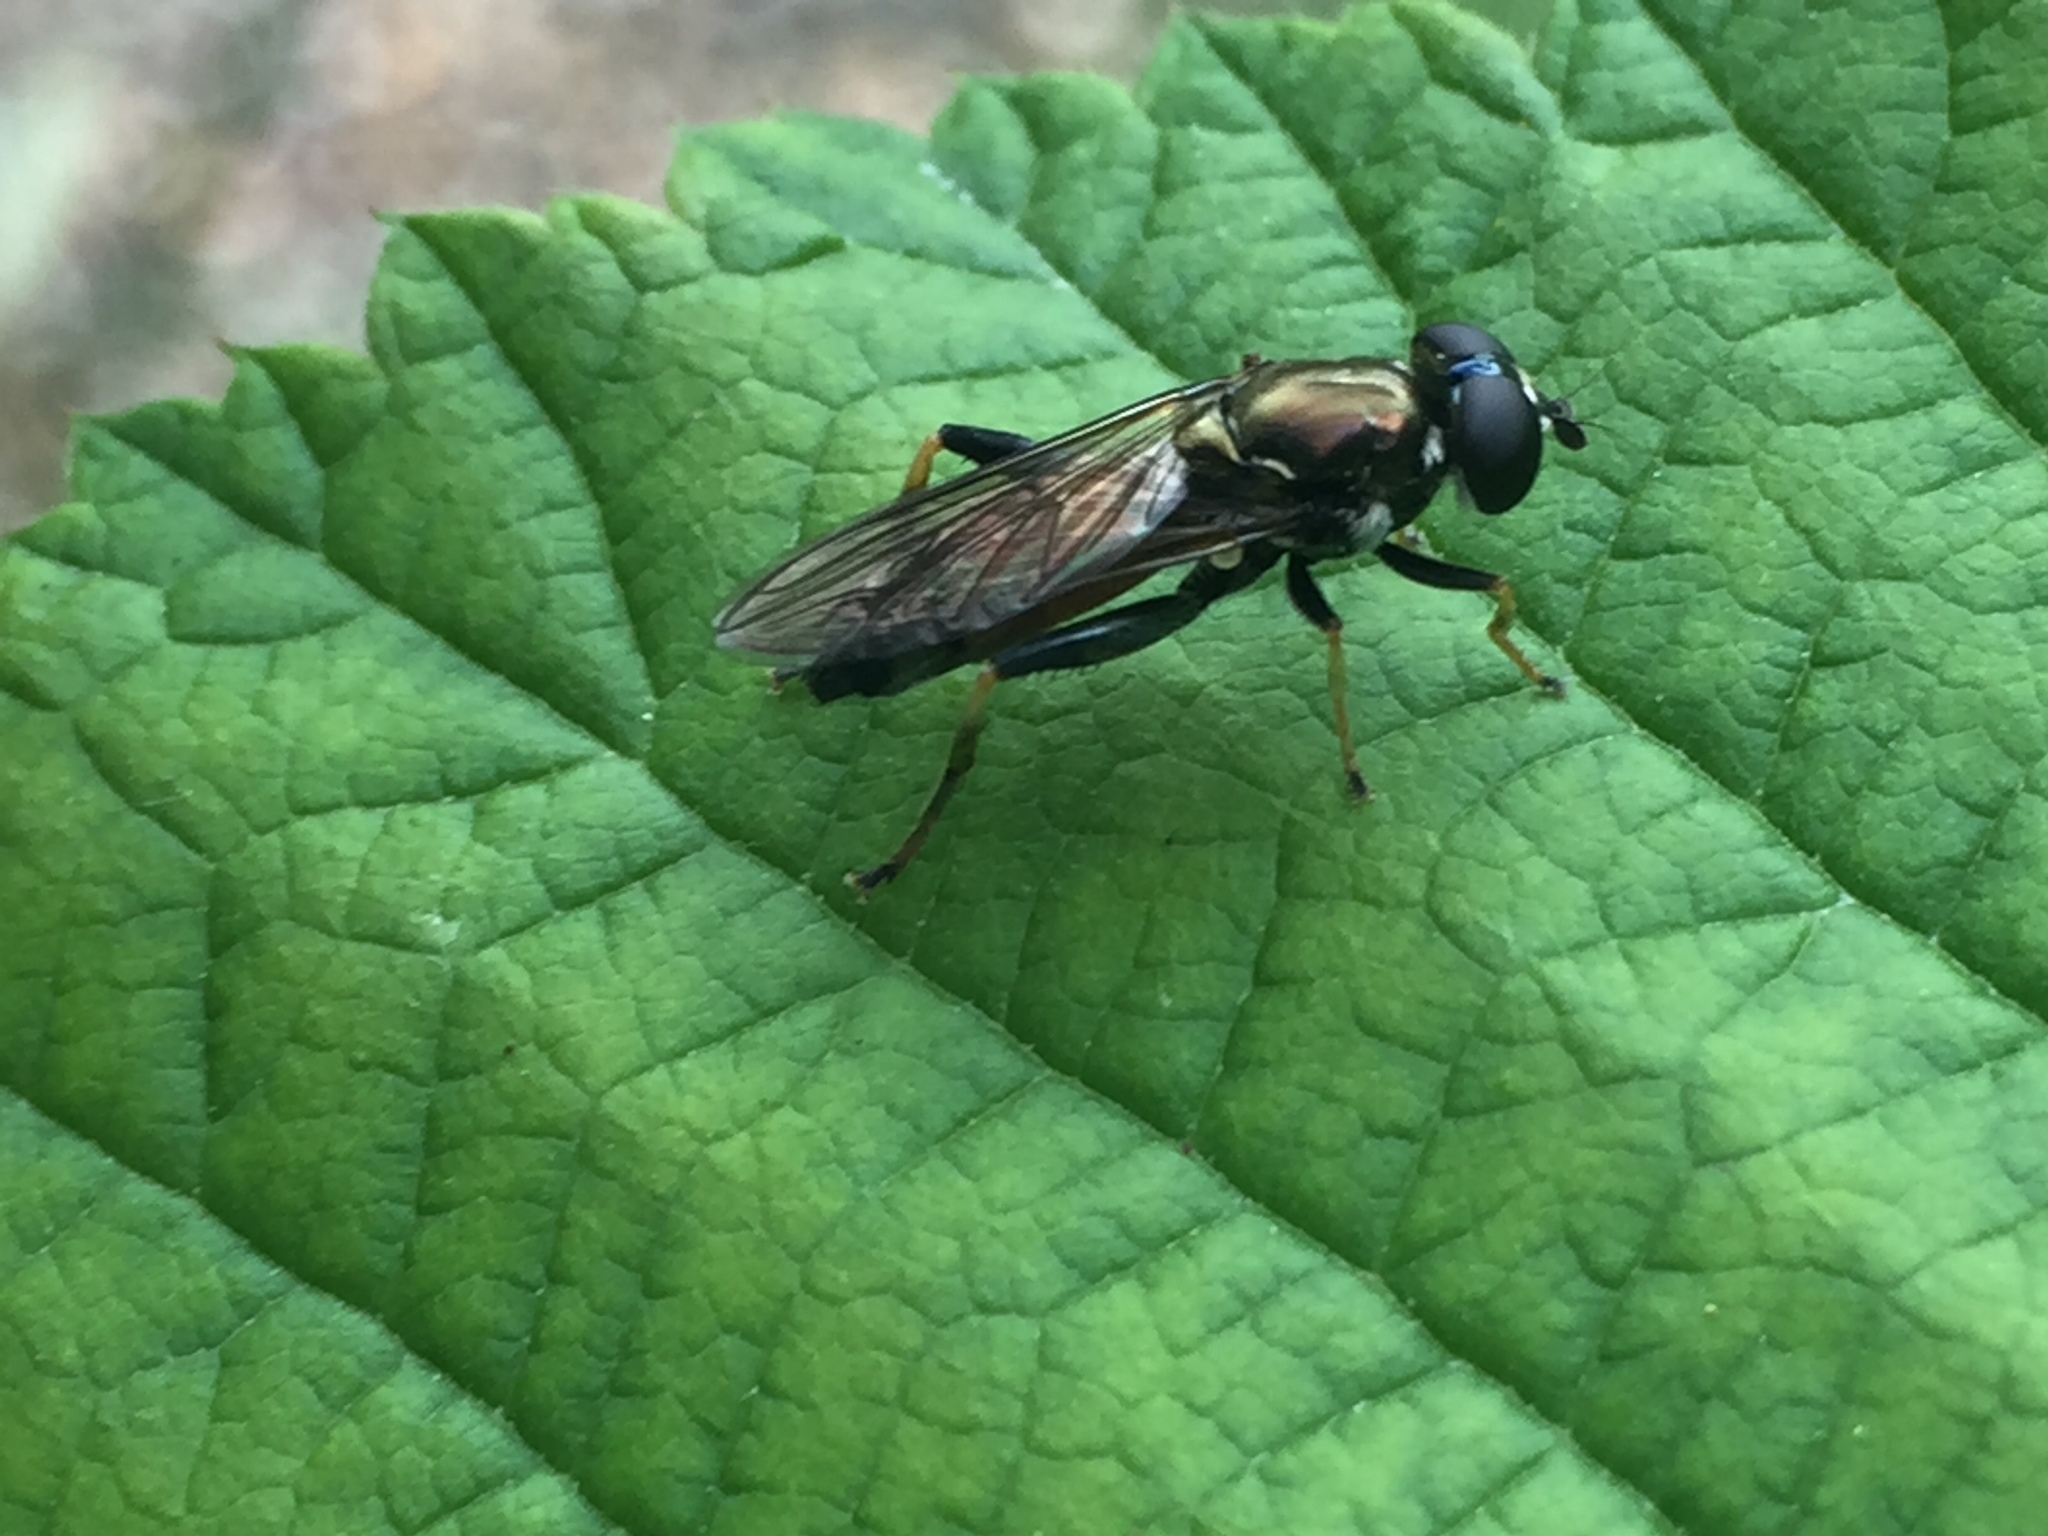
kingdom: Animalia
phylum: Arthropoda
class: Insecta
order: Diptera
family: Syrphidae
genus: Xylota
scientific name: Xylota segnis
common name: Brown-toed forest fly
